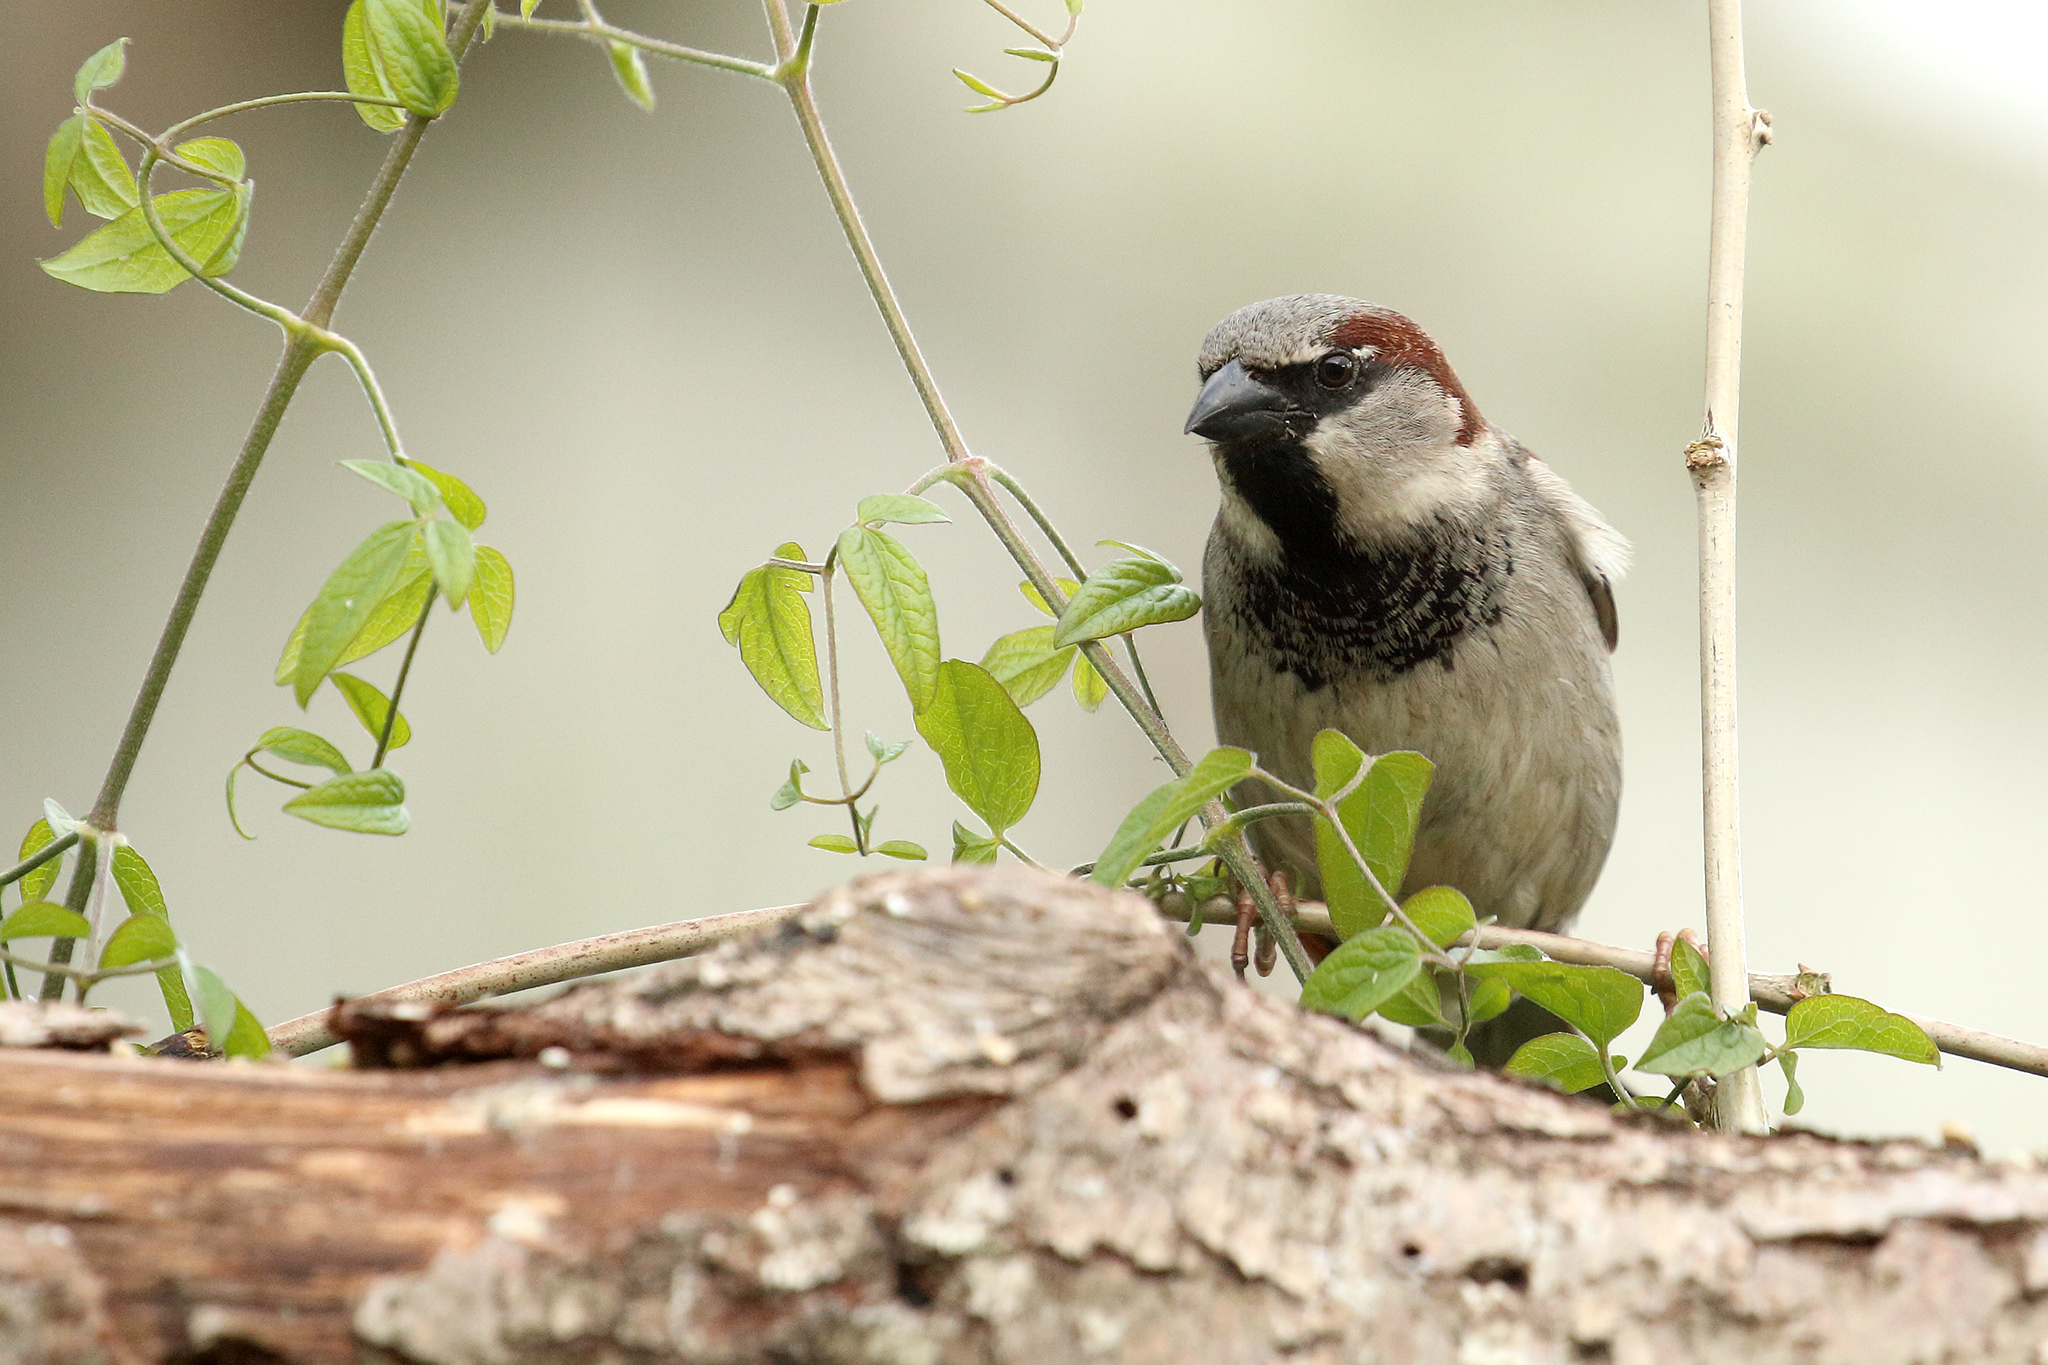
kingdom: Animalia
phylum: Chordata
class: Aves
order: Passeriformes
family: Passeridae
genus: Passer
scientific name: Passer domesticus
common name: House sparrow
